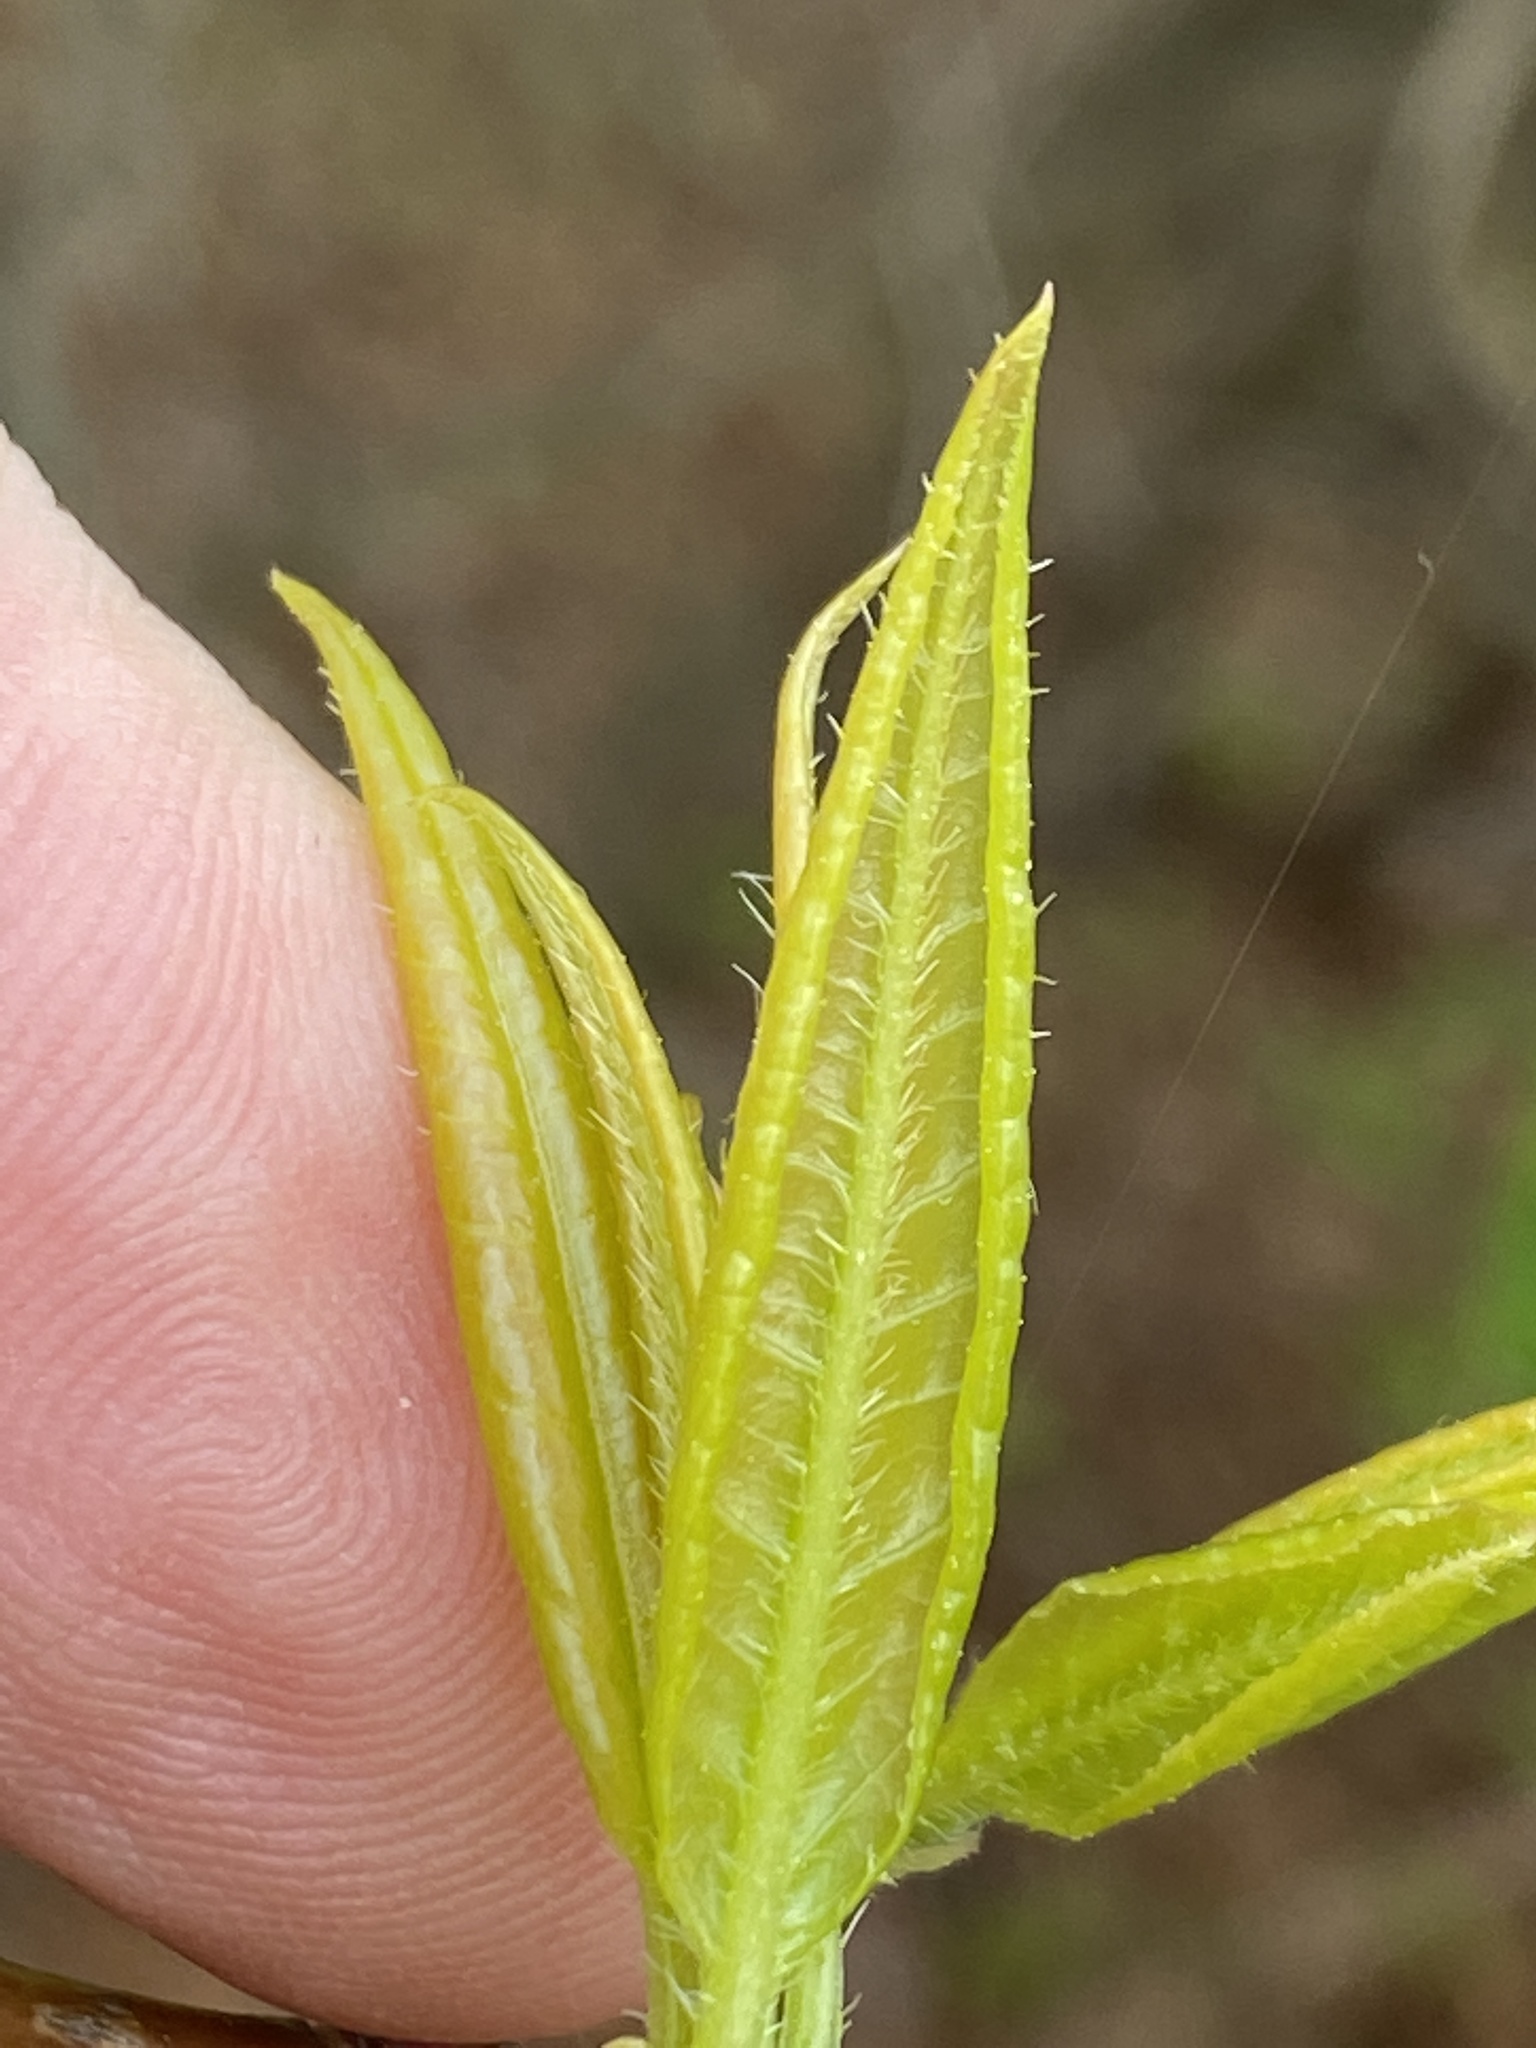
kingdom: Plantae
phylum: Tracheophyta
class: Magnoliopsida
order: Ericales
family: Ericaceae
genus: Oxydendrum
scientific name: Oxydendrum arboreum
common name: Sourwood
